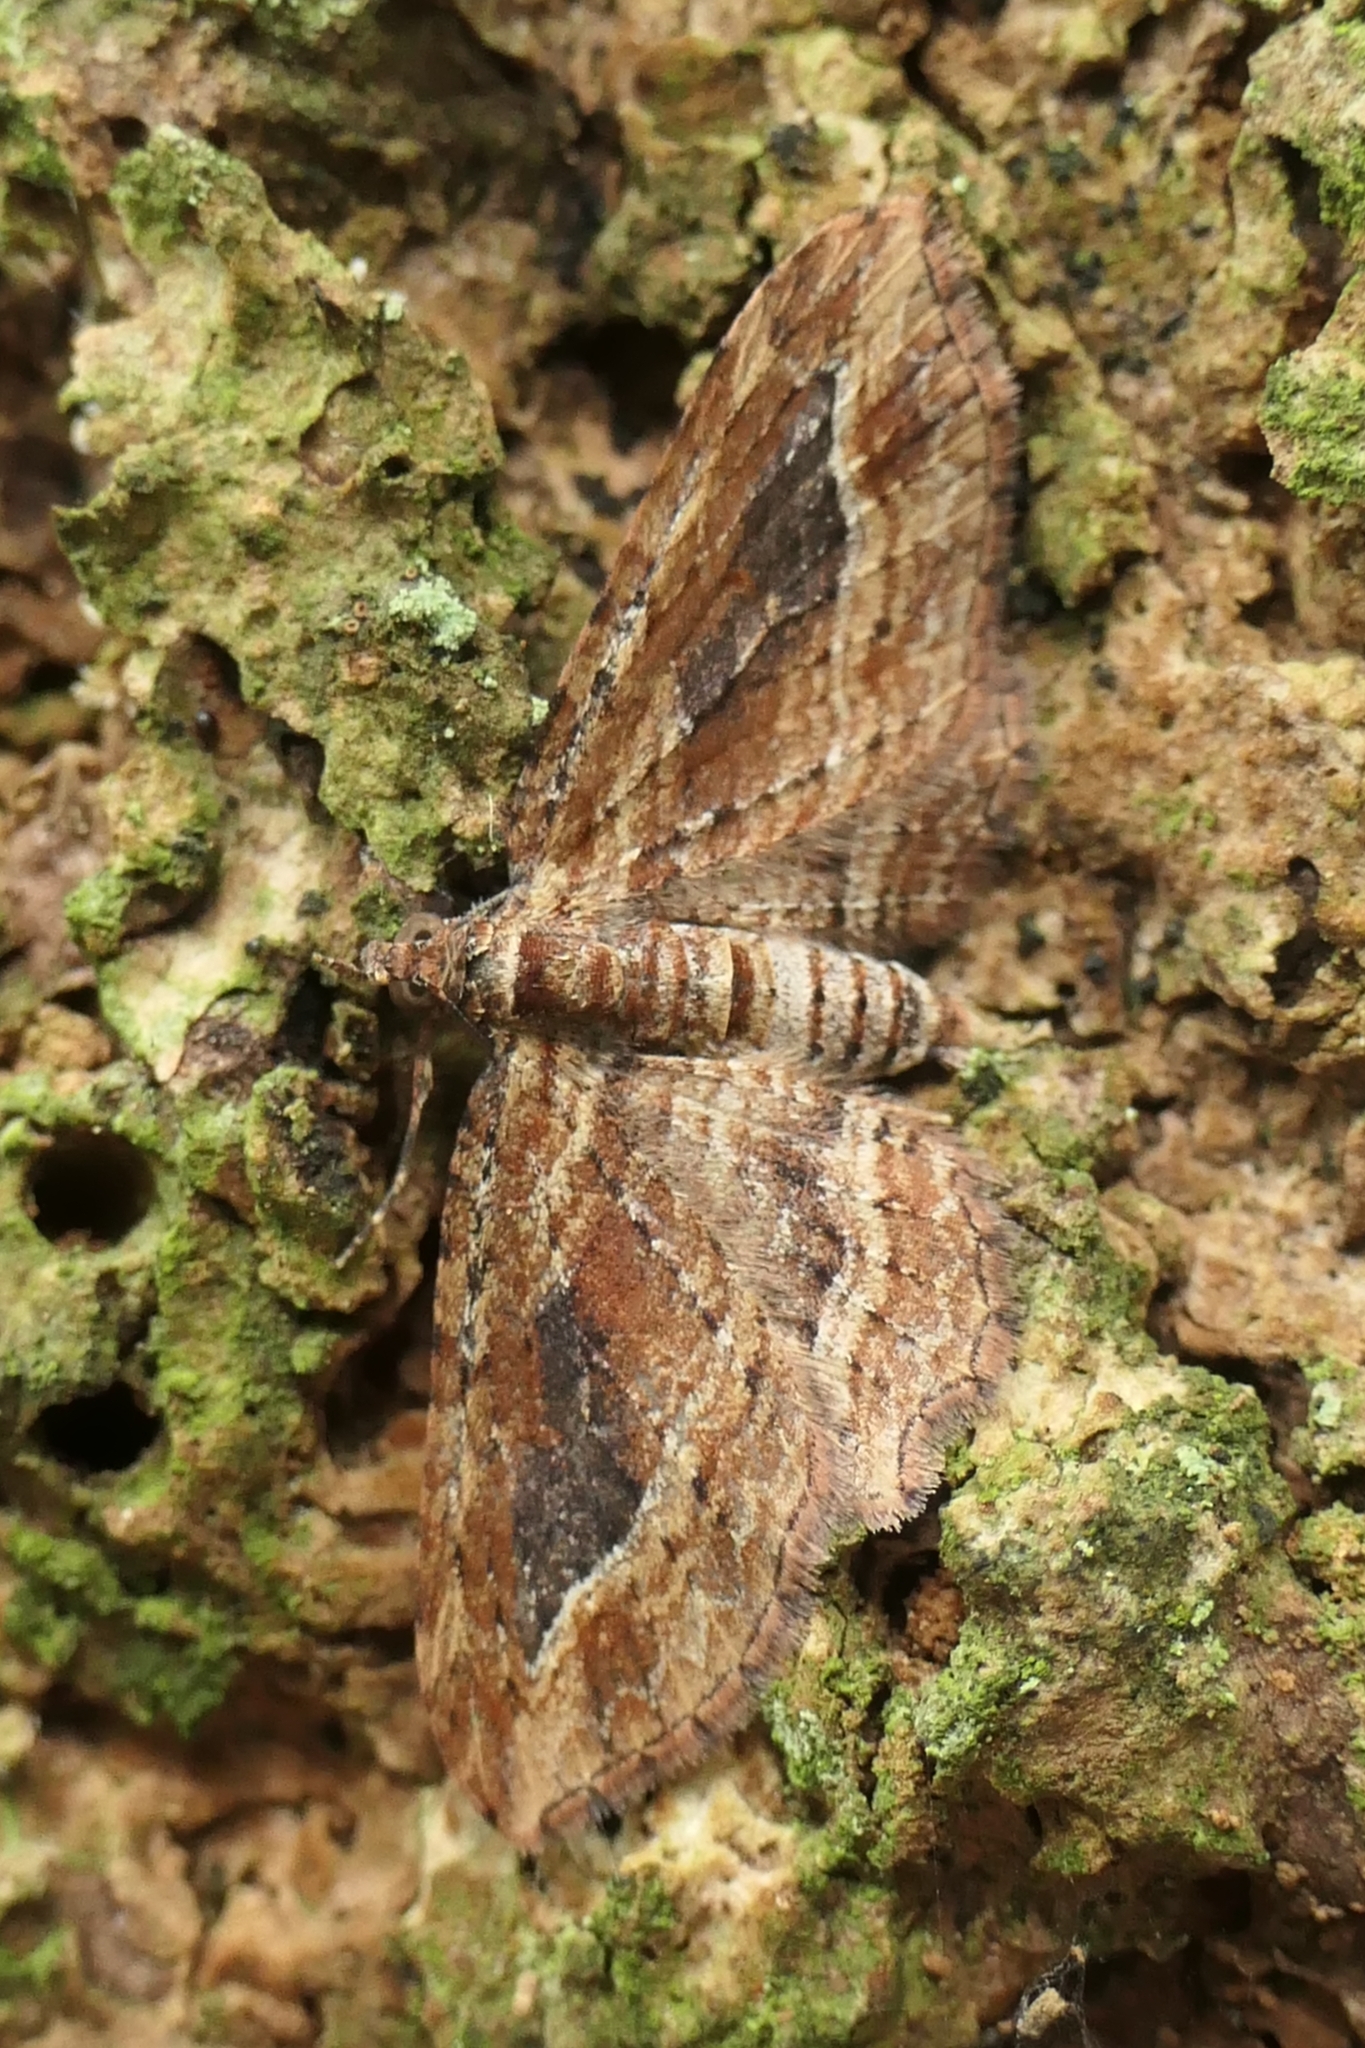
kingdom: Animalia
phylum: Arthropoda
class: Insecta
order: Lepidoptera
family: Geometridae
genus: Chloroclystis
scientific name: Chloroclystis filata
